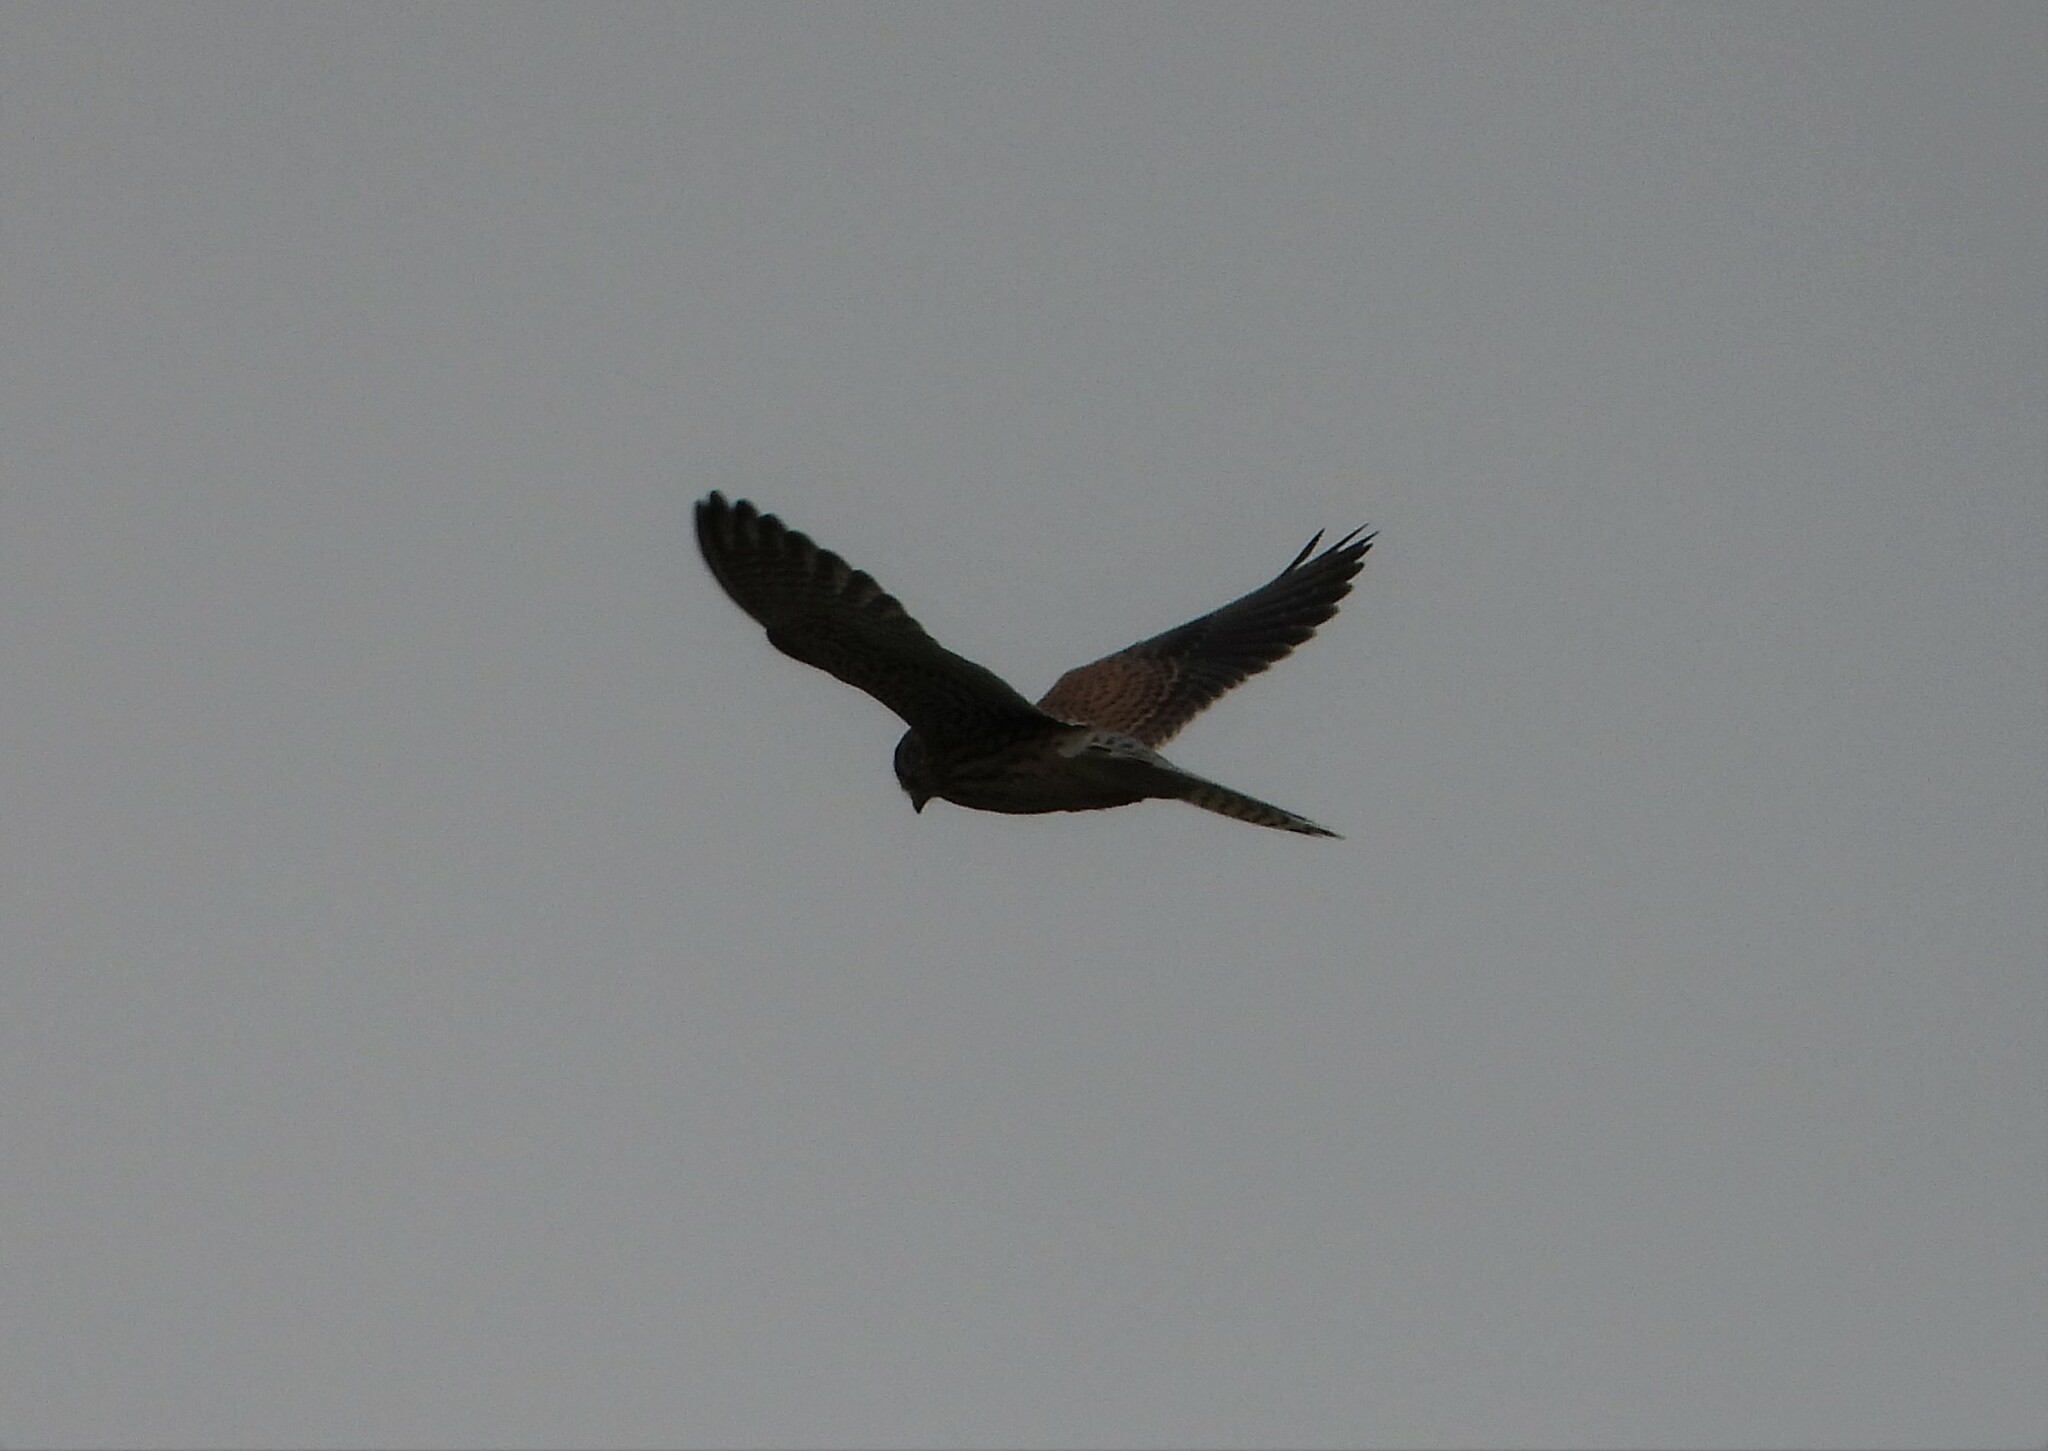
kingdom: Animalia
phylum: Chordata
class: Aves
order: Falconiformes
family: Falconidae
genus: Falco
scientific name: Falco tinnunculus
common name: Common kestrel
